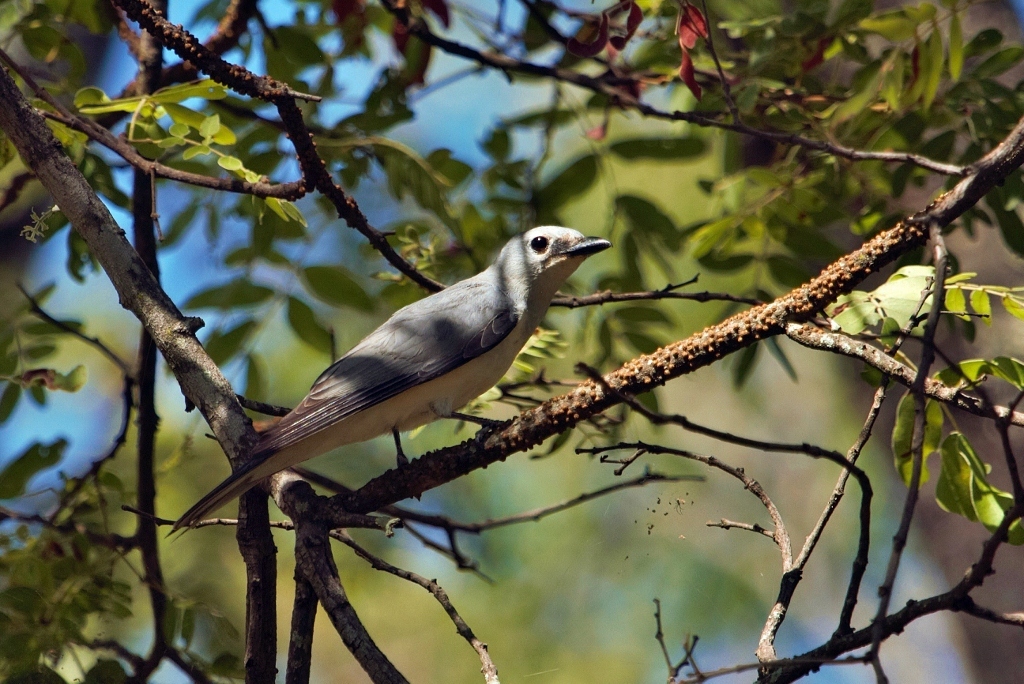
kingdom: Animalia
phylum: Chordata
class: Aves
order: Passeriformes
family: Campephagidae
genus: Coracina
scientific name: Coracina pectoralis
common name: White-breasted cuckooshrike
